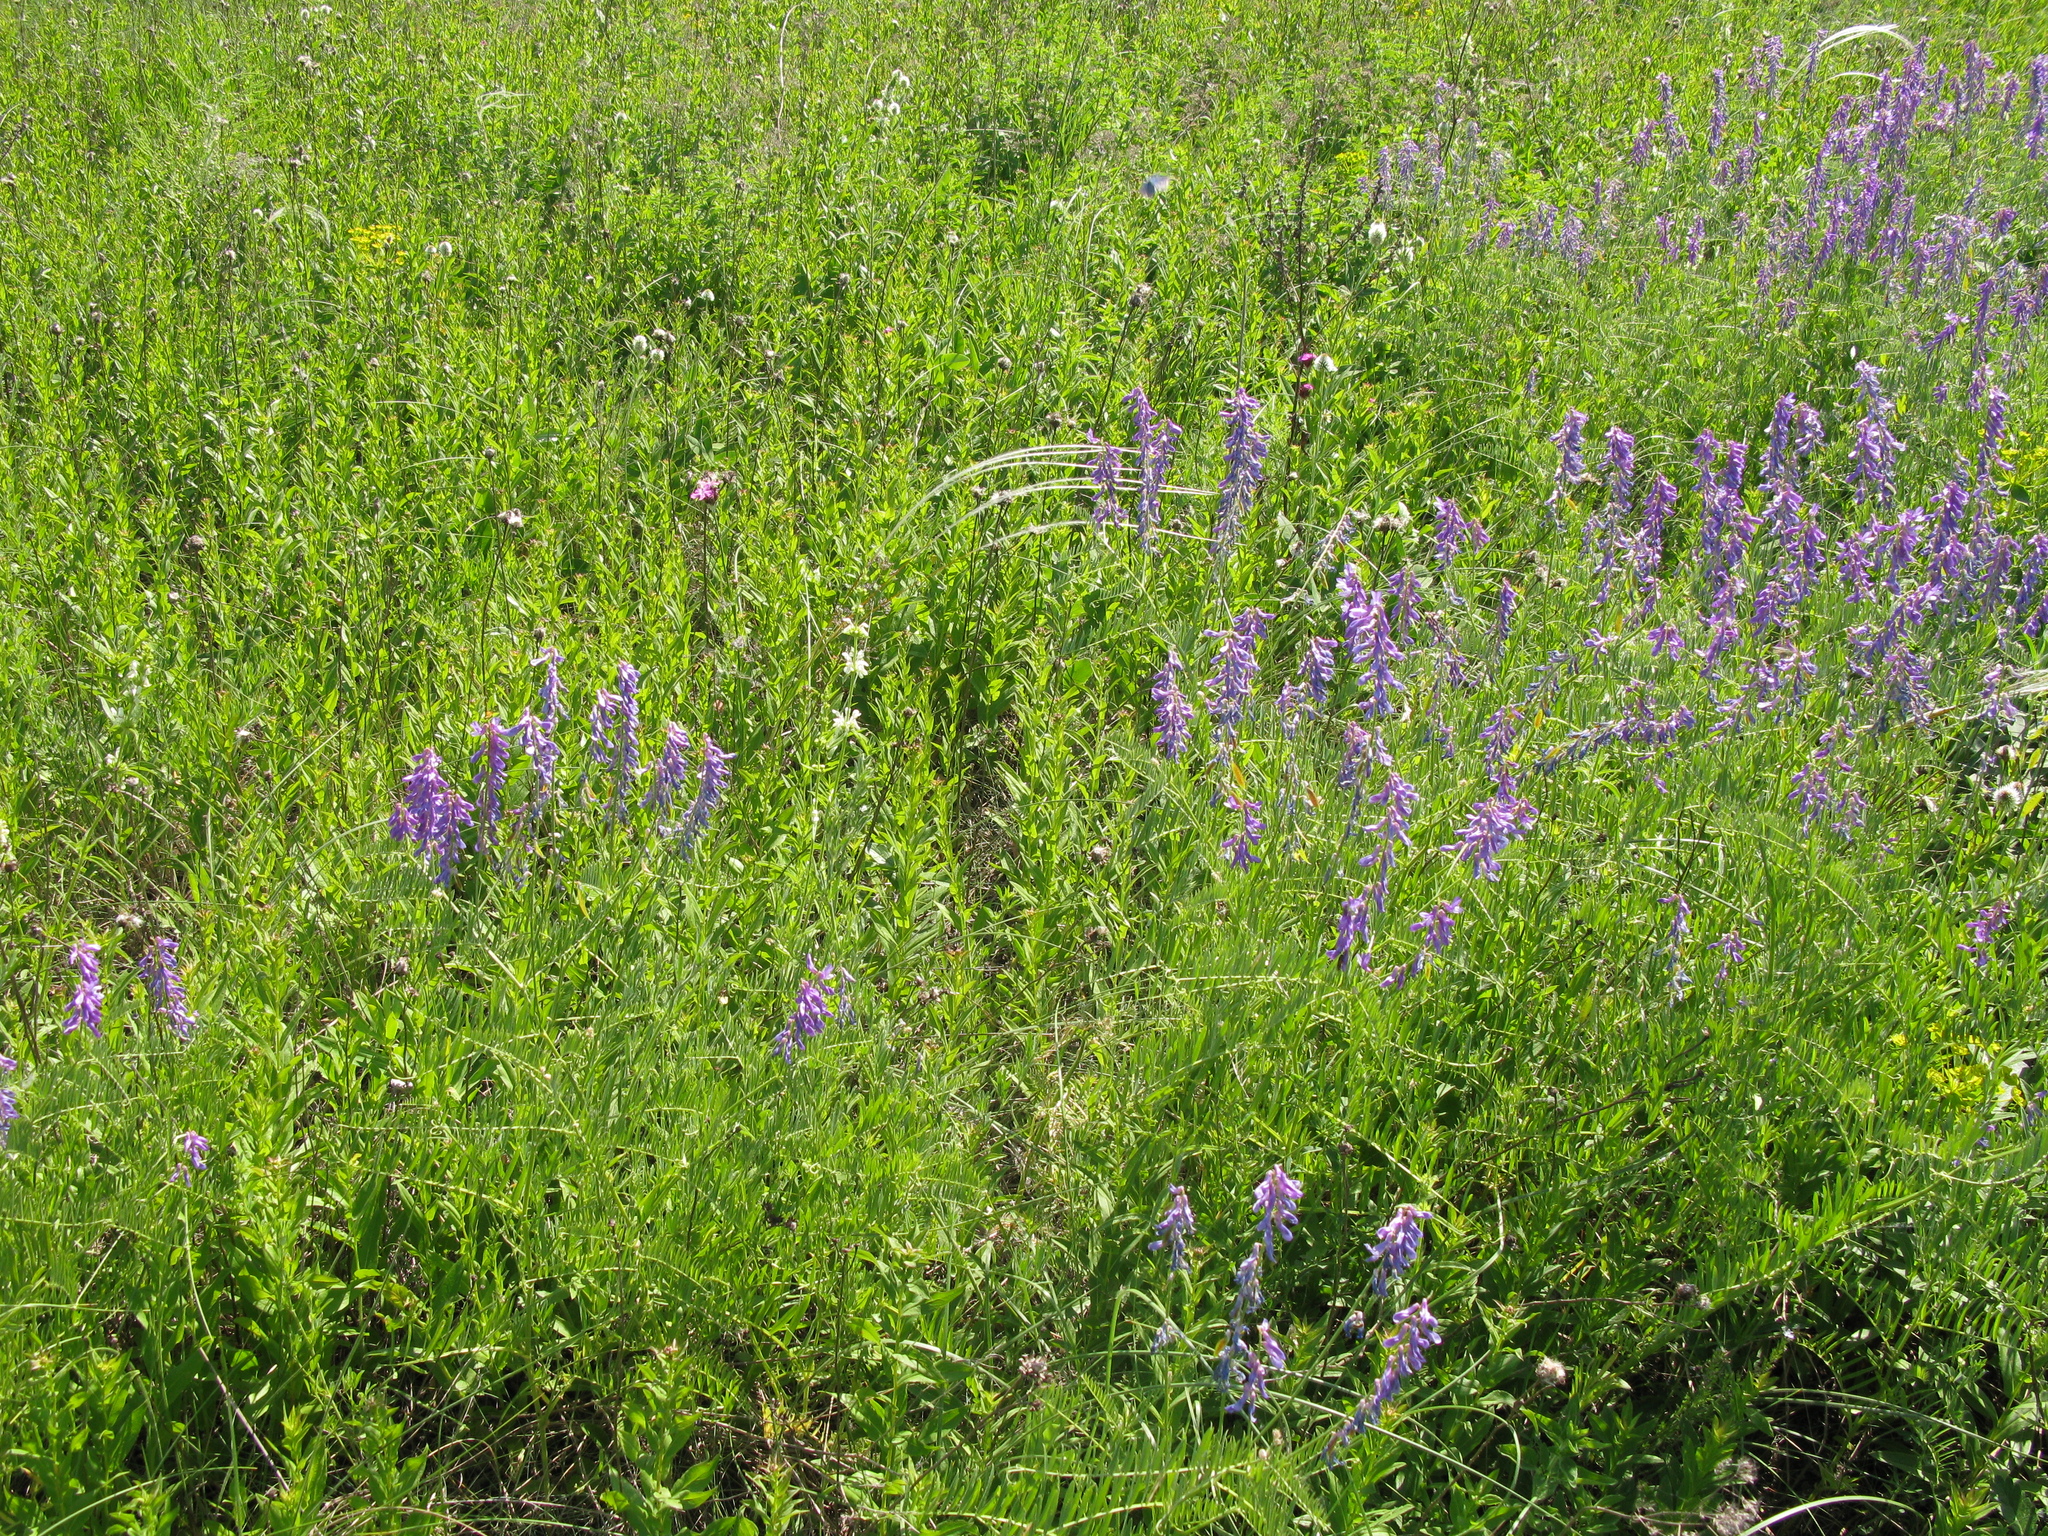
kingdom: Plantae
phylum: Tracheophyta
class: Magnoliopsida
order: Fabales
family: Fabaceae
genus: Vicia
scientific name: Vicia tenuifolia
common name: Fine-leaved vetch
